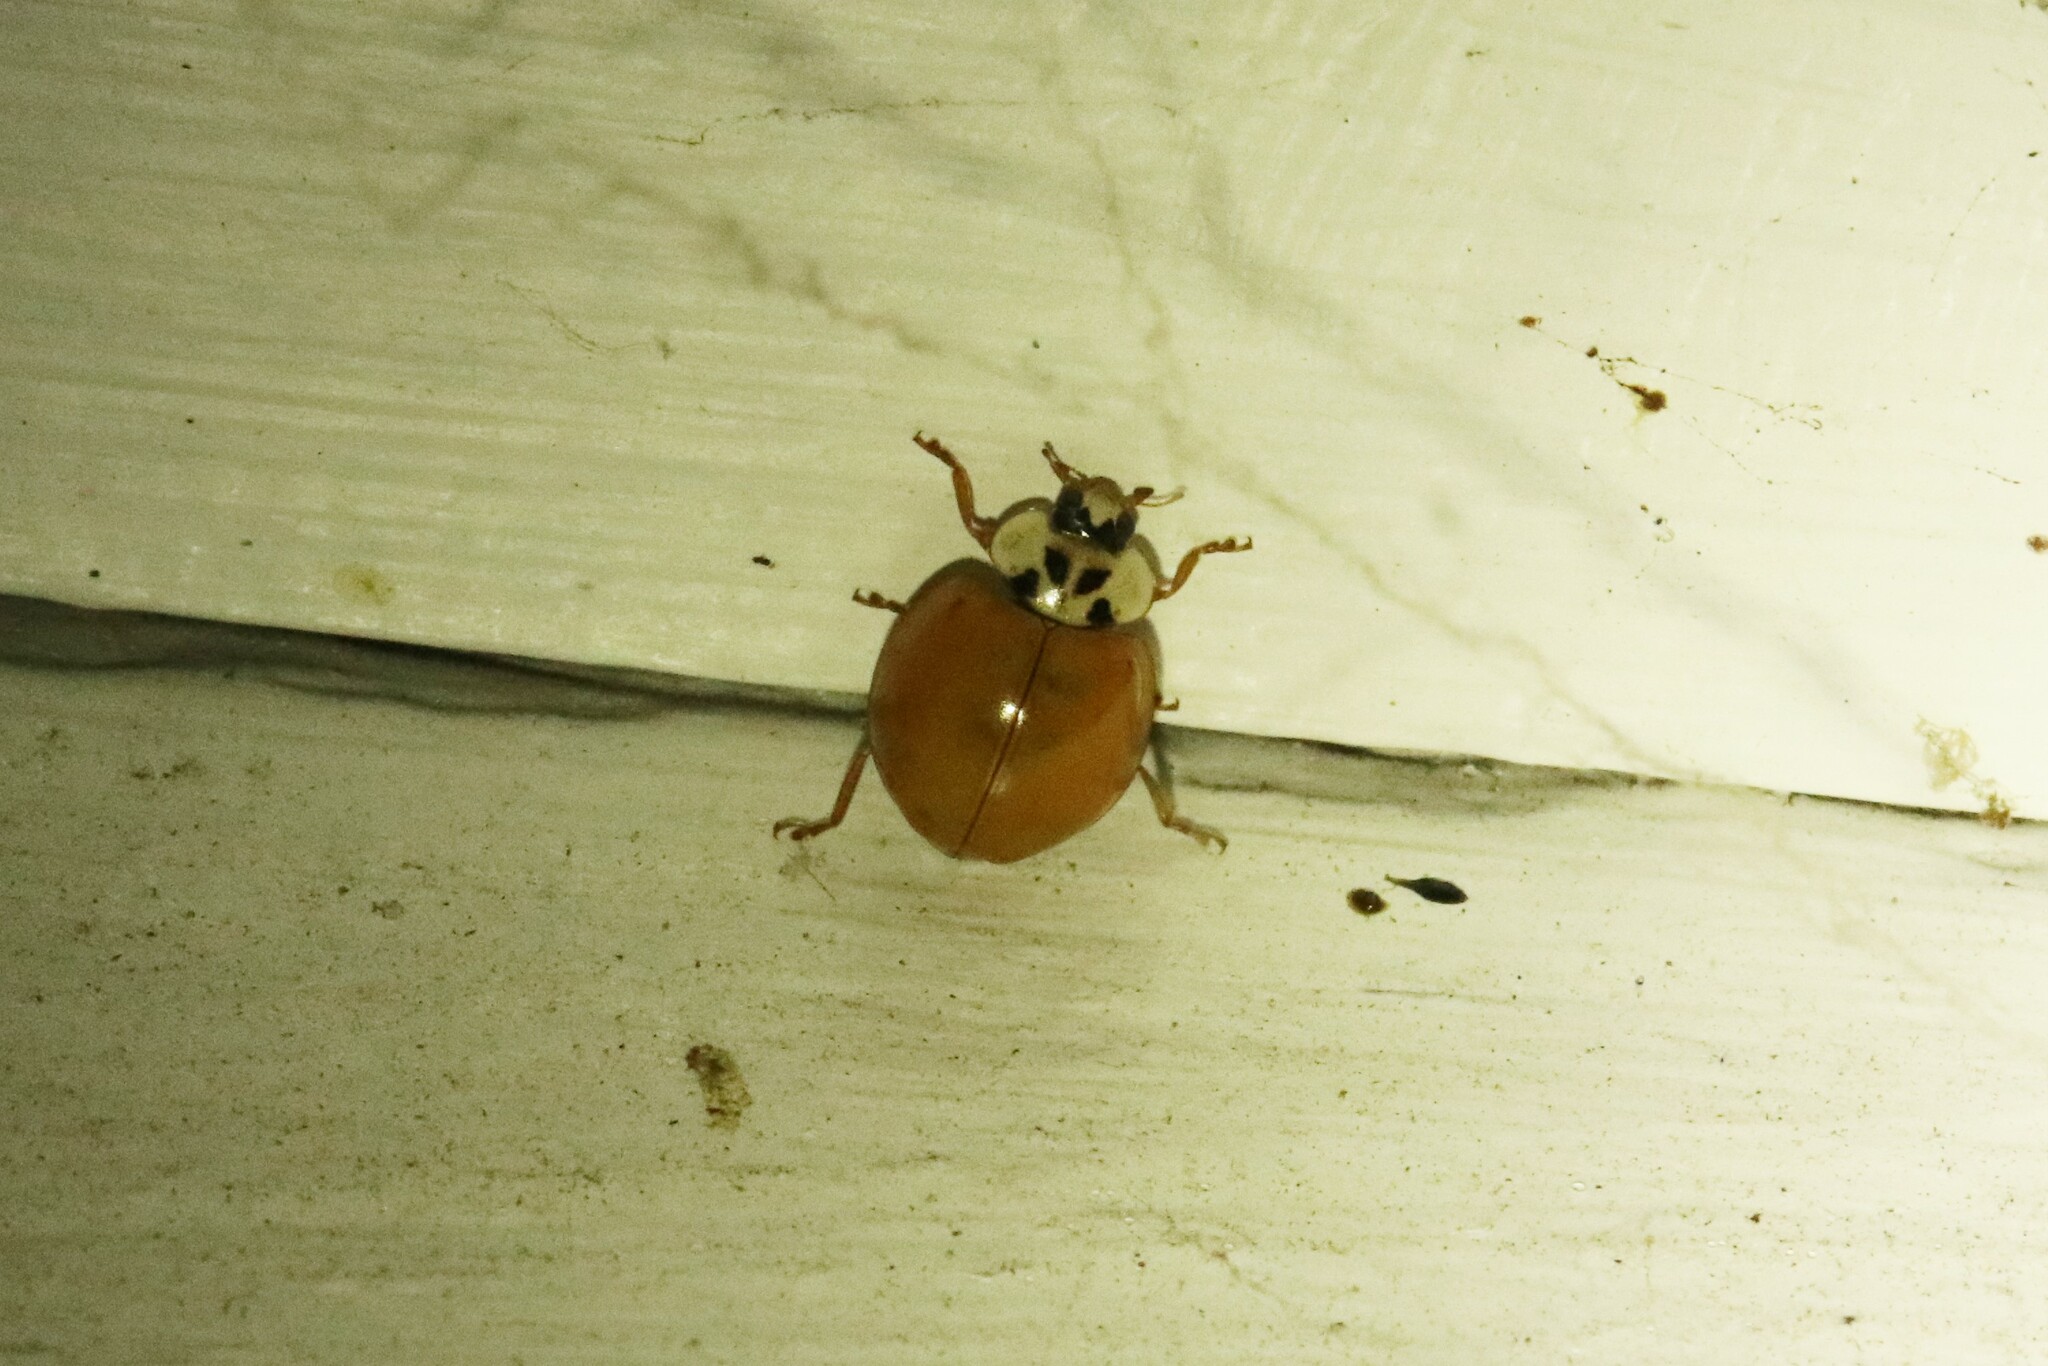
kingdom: Animalia
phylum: Arthropoda
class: Insecta
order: Coleoptera
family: Coccinellidae
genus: Harmonia
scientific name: Harmonia axyridis
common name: Harlequin ladybird
